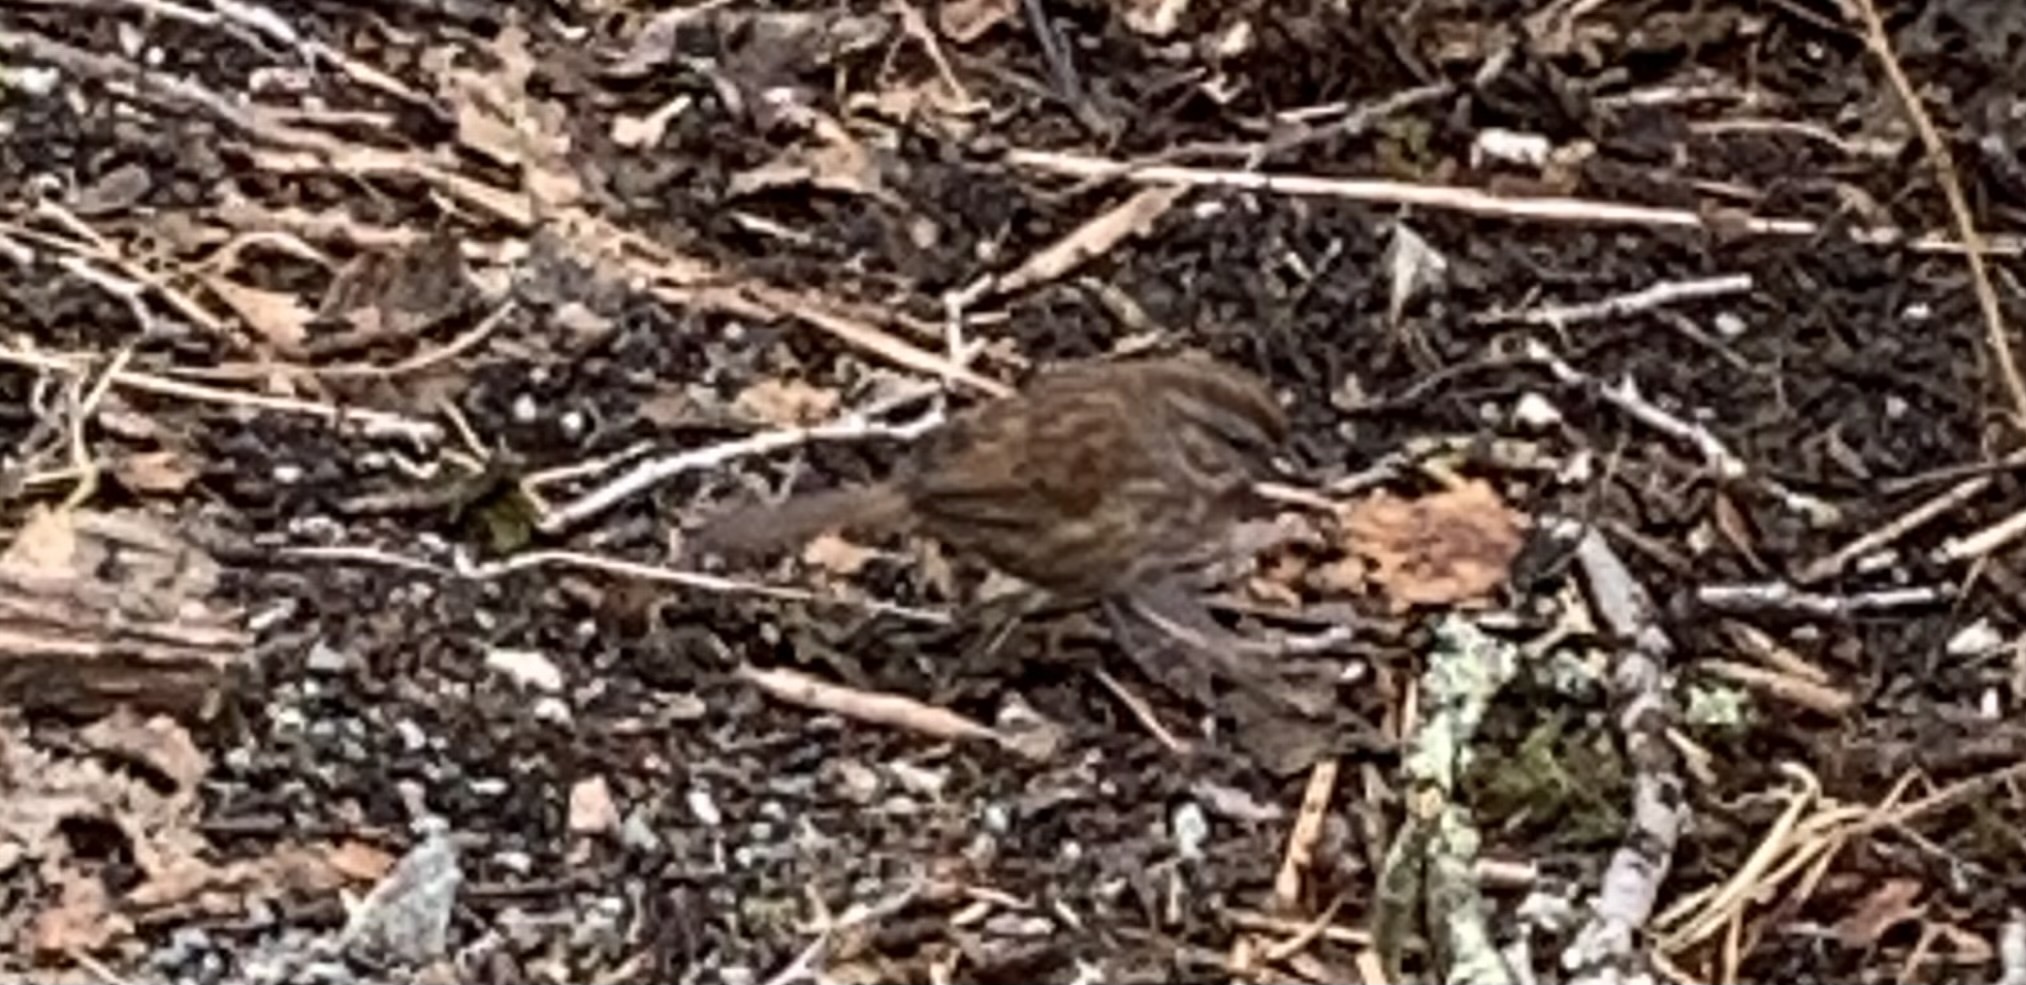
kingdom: Animalia
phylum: Chordata
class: Aves
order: Passeriformes
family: Passerellidae
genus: Melospiza
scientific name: Melospiza melodia
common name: Song sparrow
